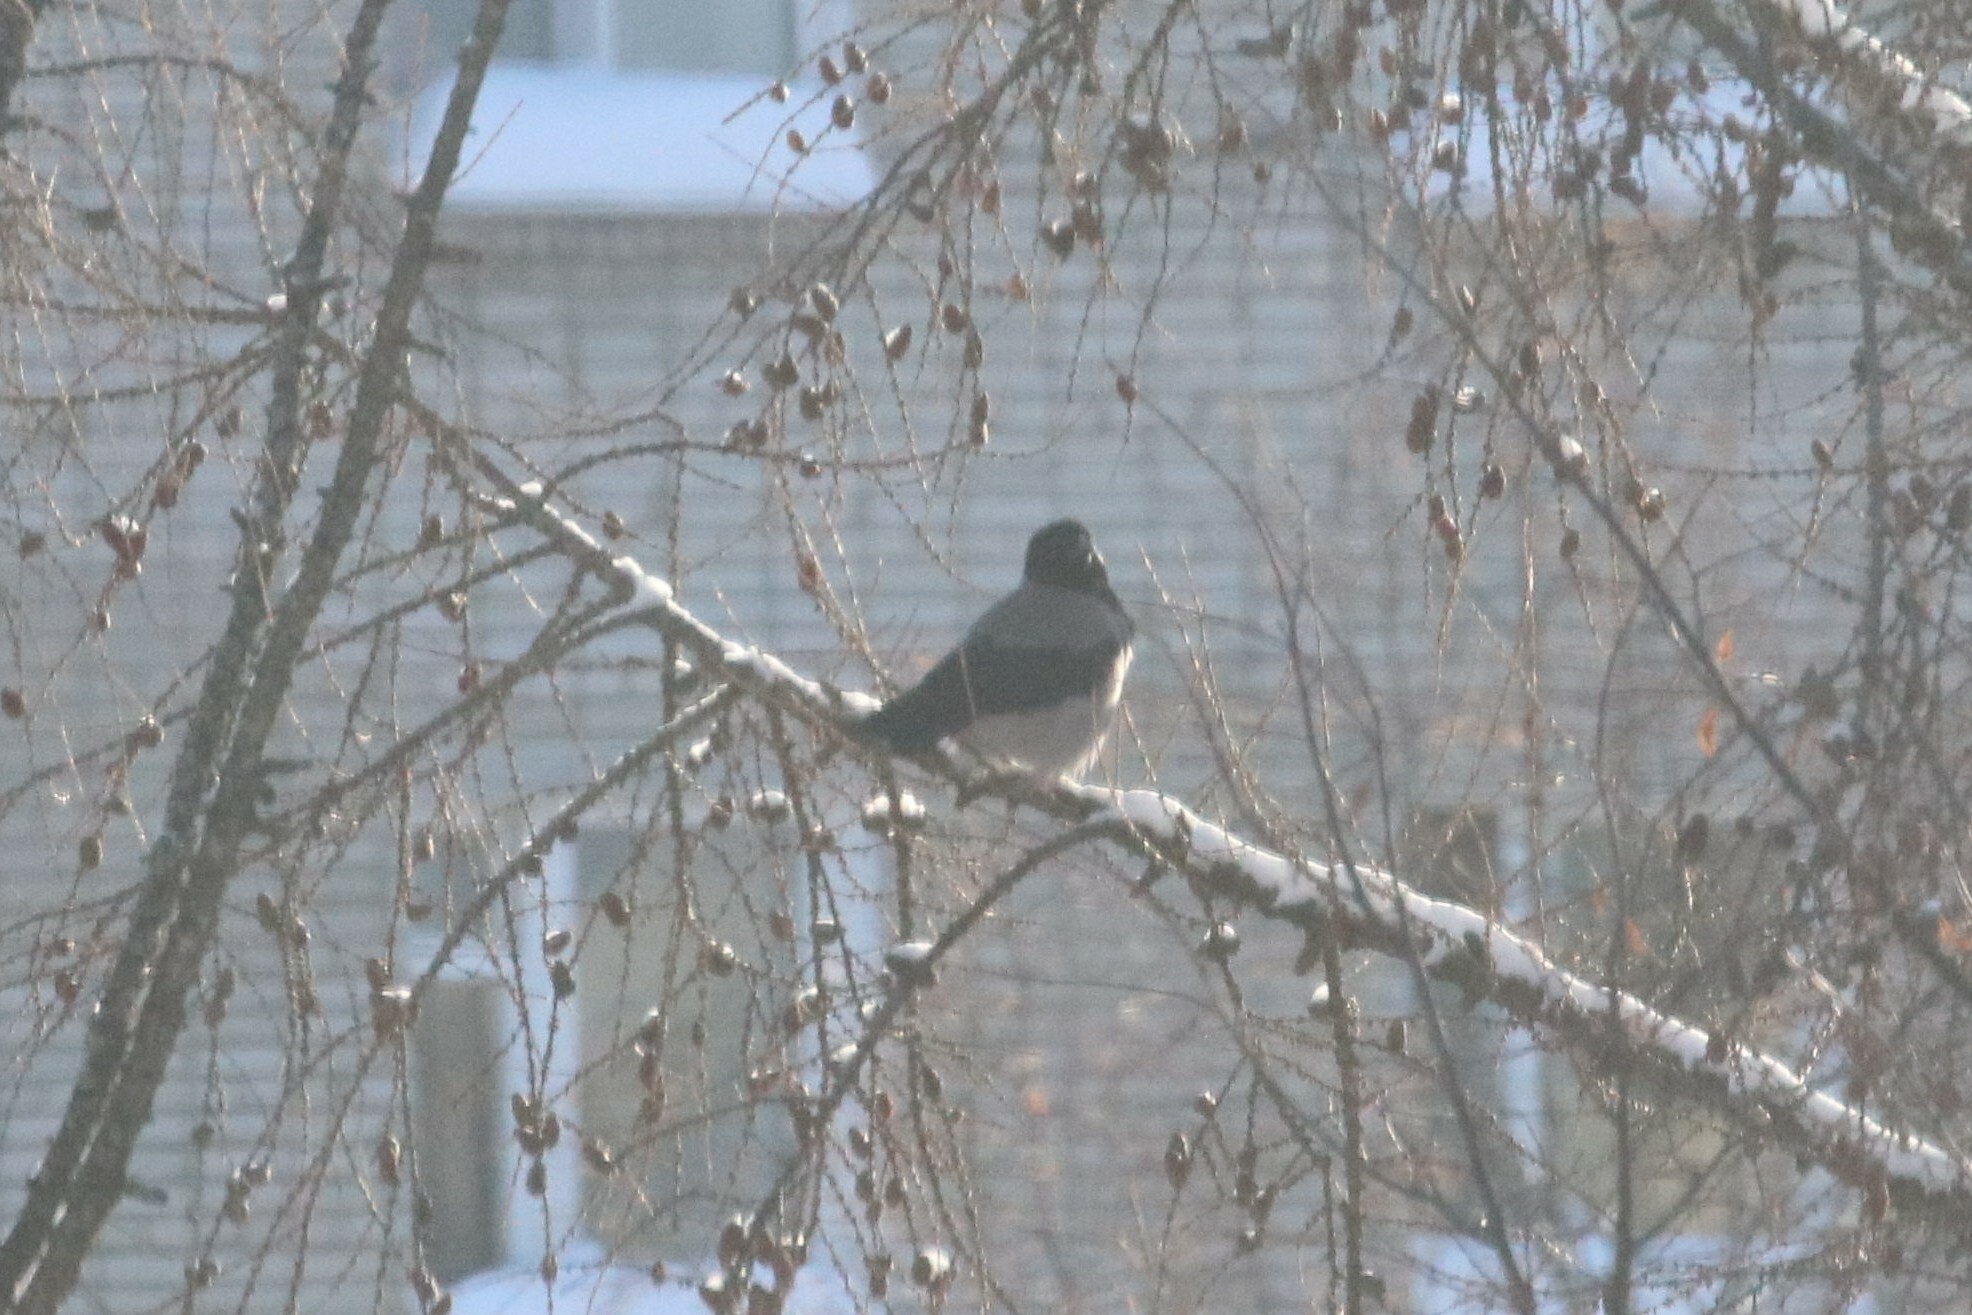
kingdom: Animalia
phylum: Chordata
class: Aves
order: Passeriformes
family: Corvidae
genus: Corvus
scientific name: Corvus cornix
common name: Hooded crow
